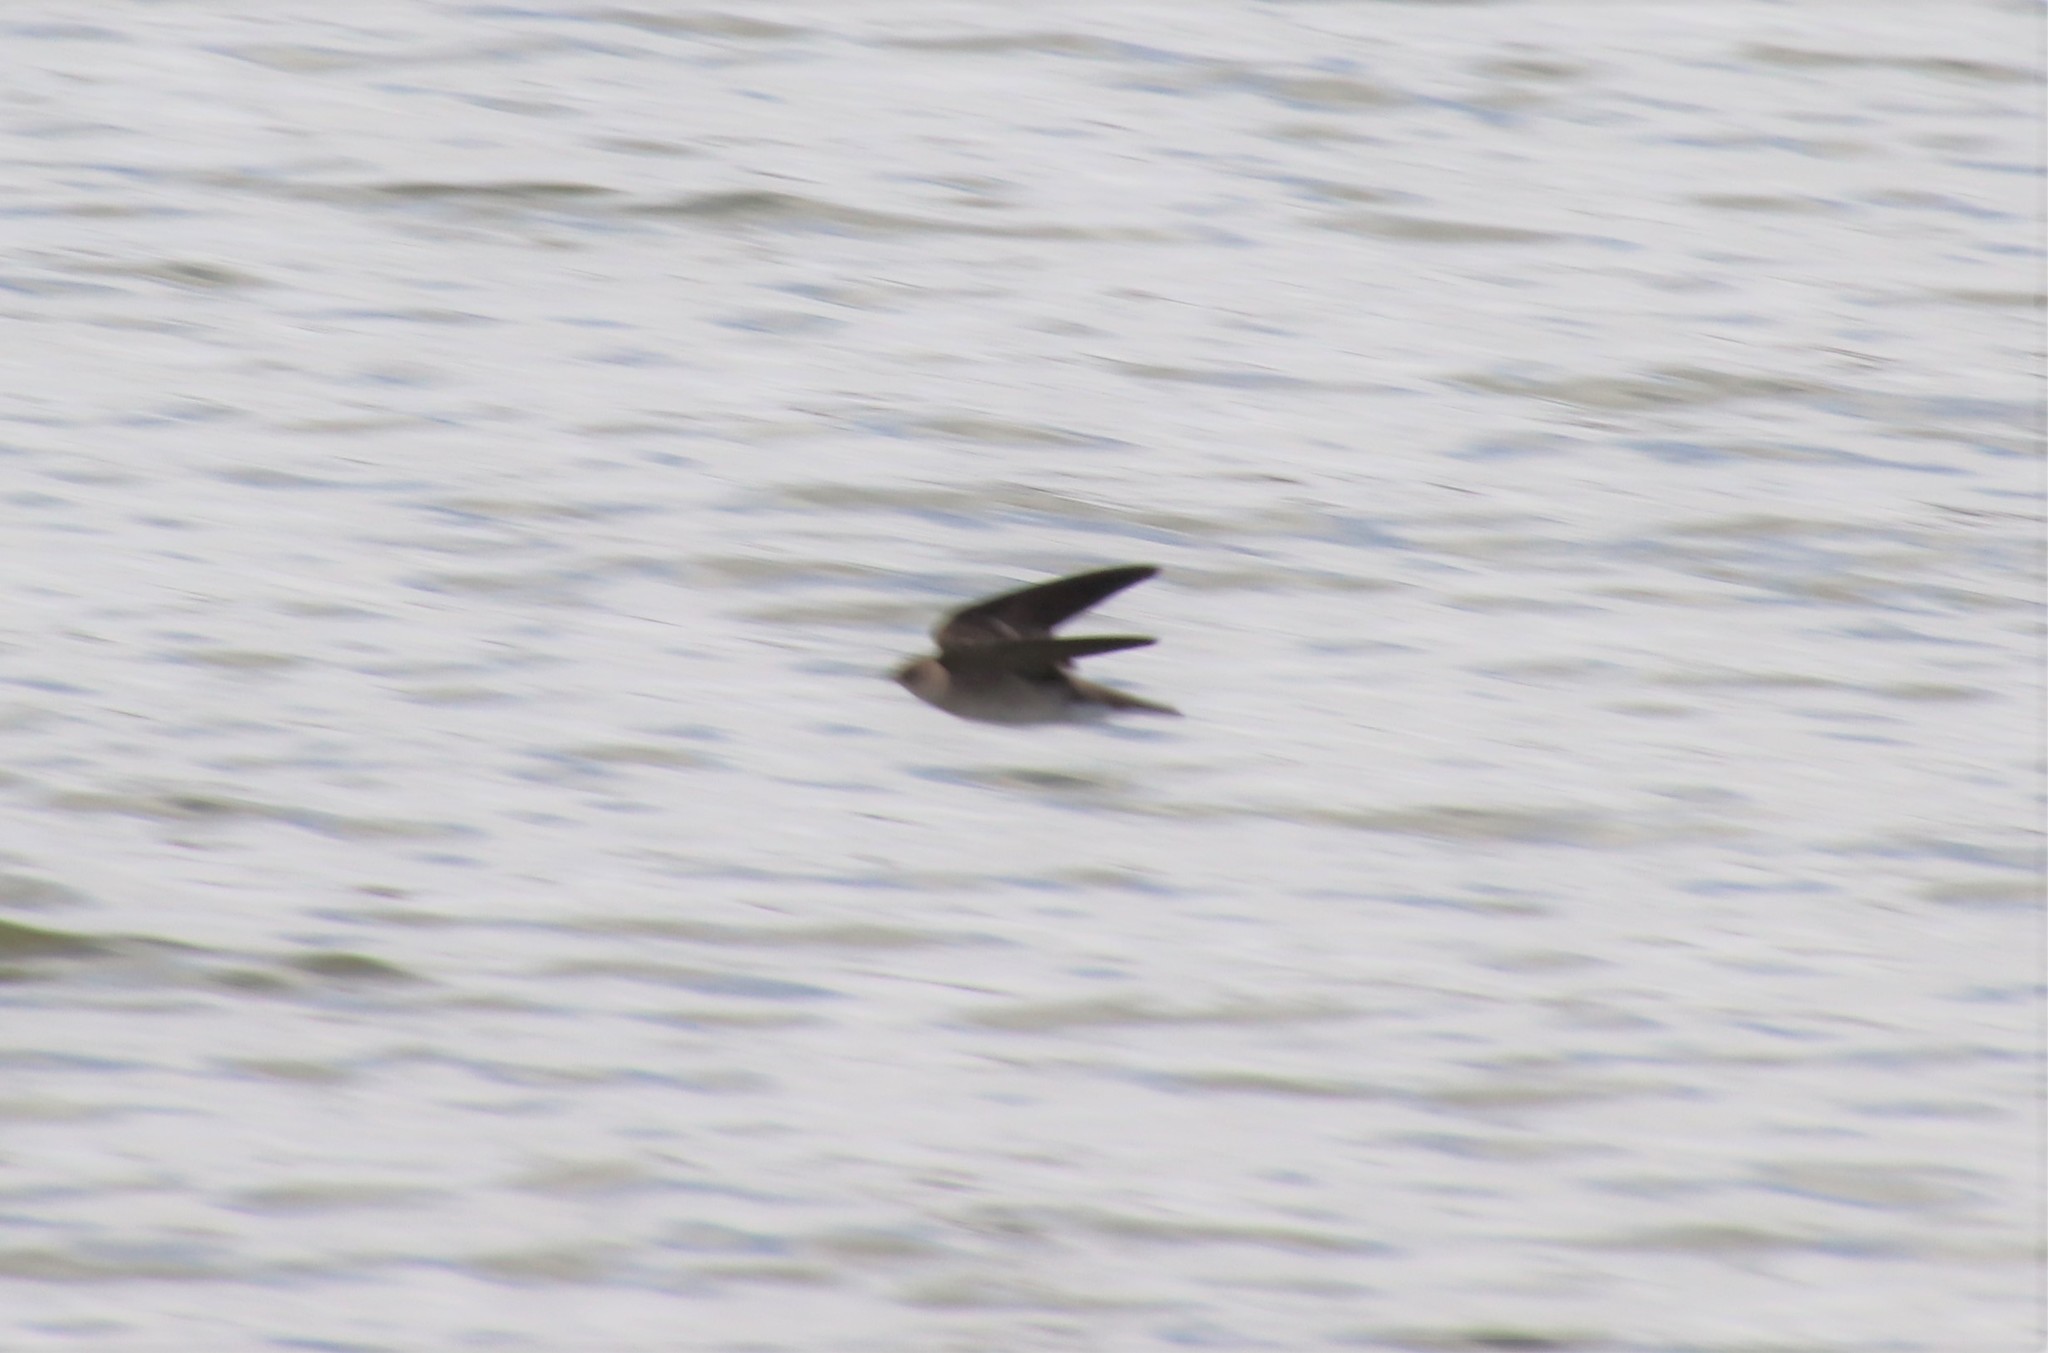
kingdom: Animalia
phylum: Chordata
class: Aves
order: Passeriformes
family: Hirundinidae
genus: Stelgidopteryx
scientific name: Stelgidopteryx serripennis
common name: Northern rough-winged swallow
